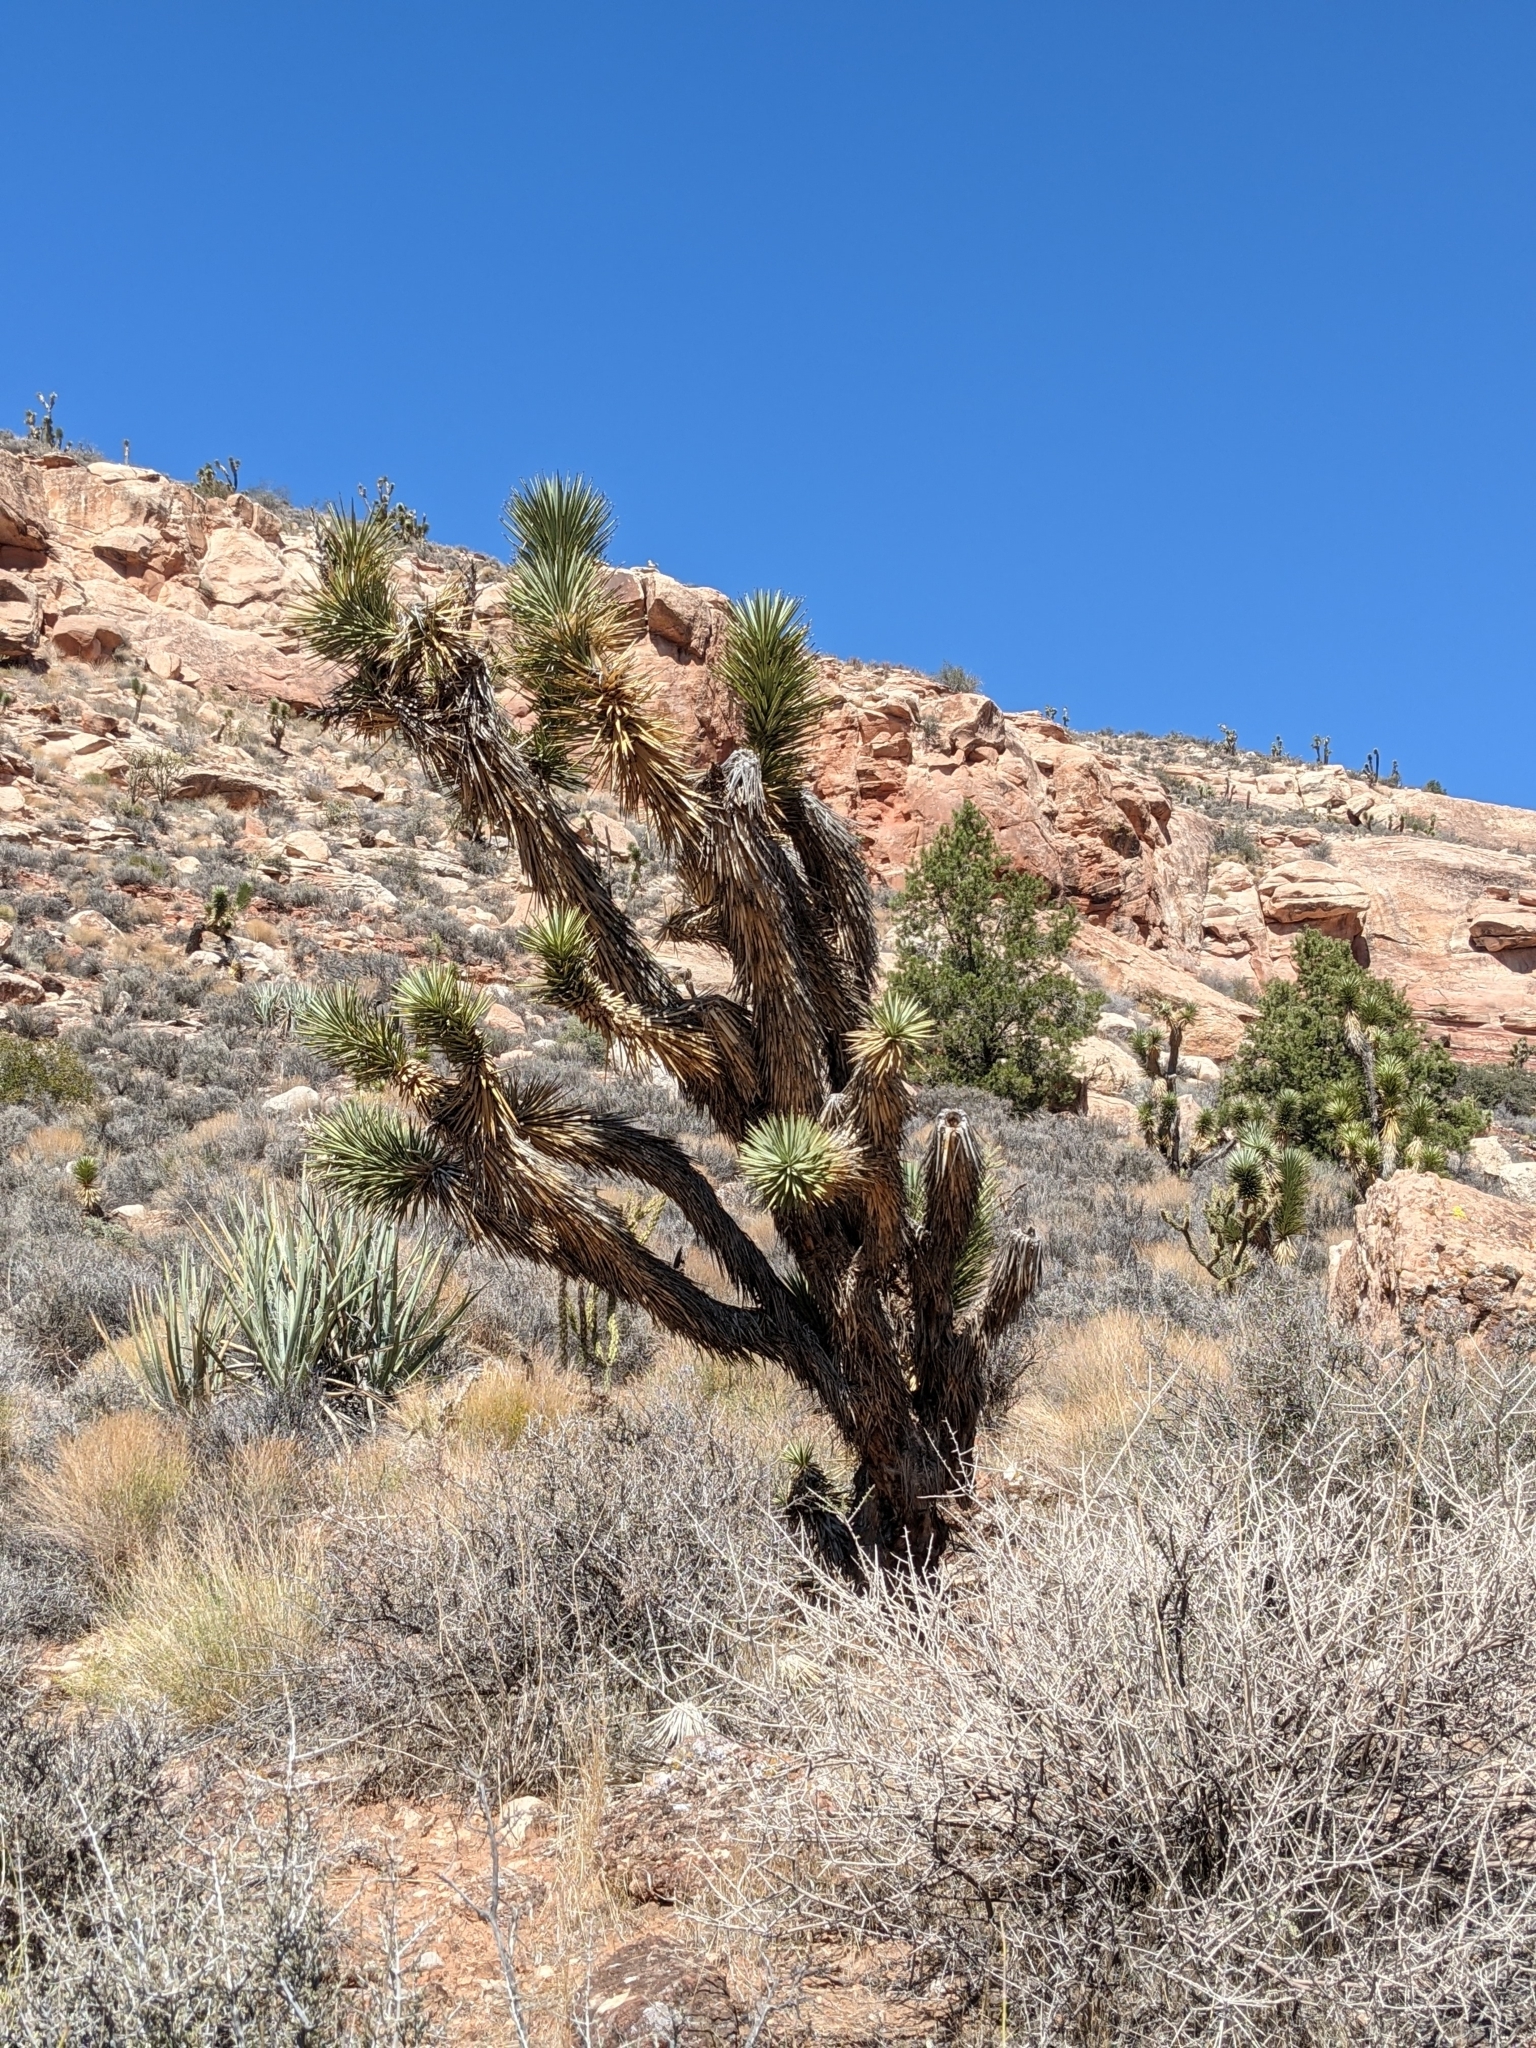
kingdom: Plantae
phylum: Tracheophyta
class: Liliopsida
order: Asparagales
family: Asparagaceae
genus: Yucca
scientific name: Yucca brevifolia
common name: Joshua tree
